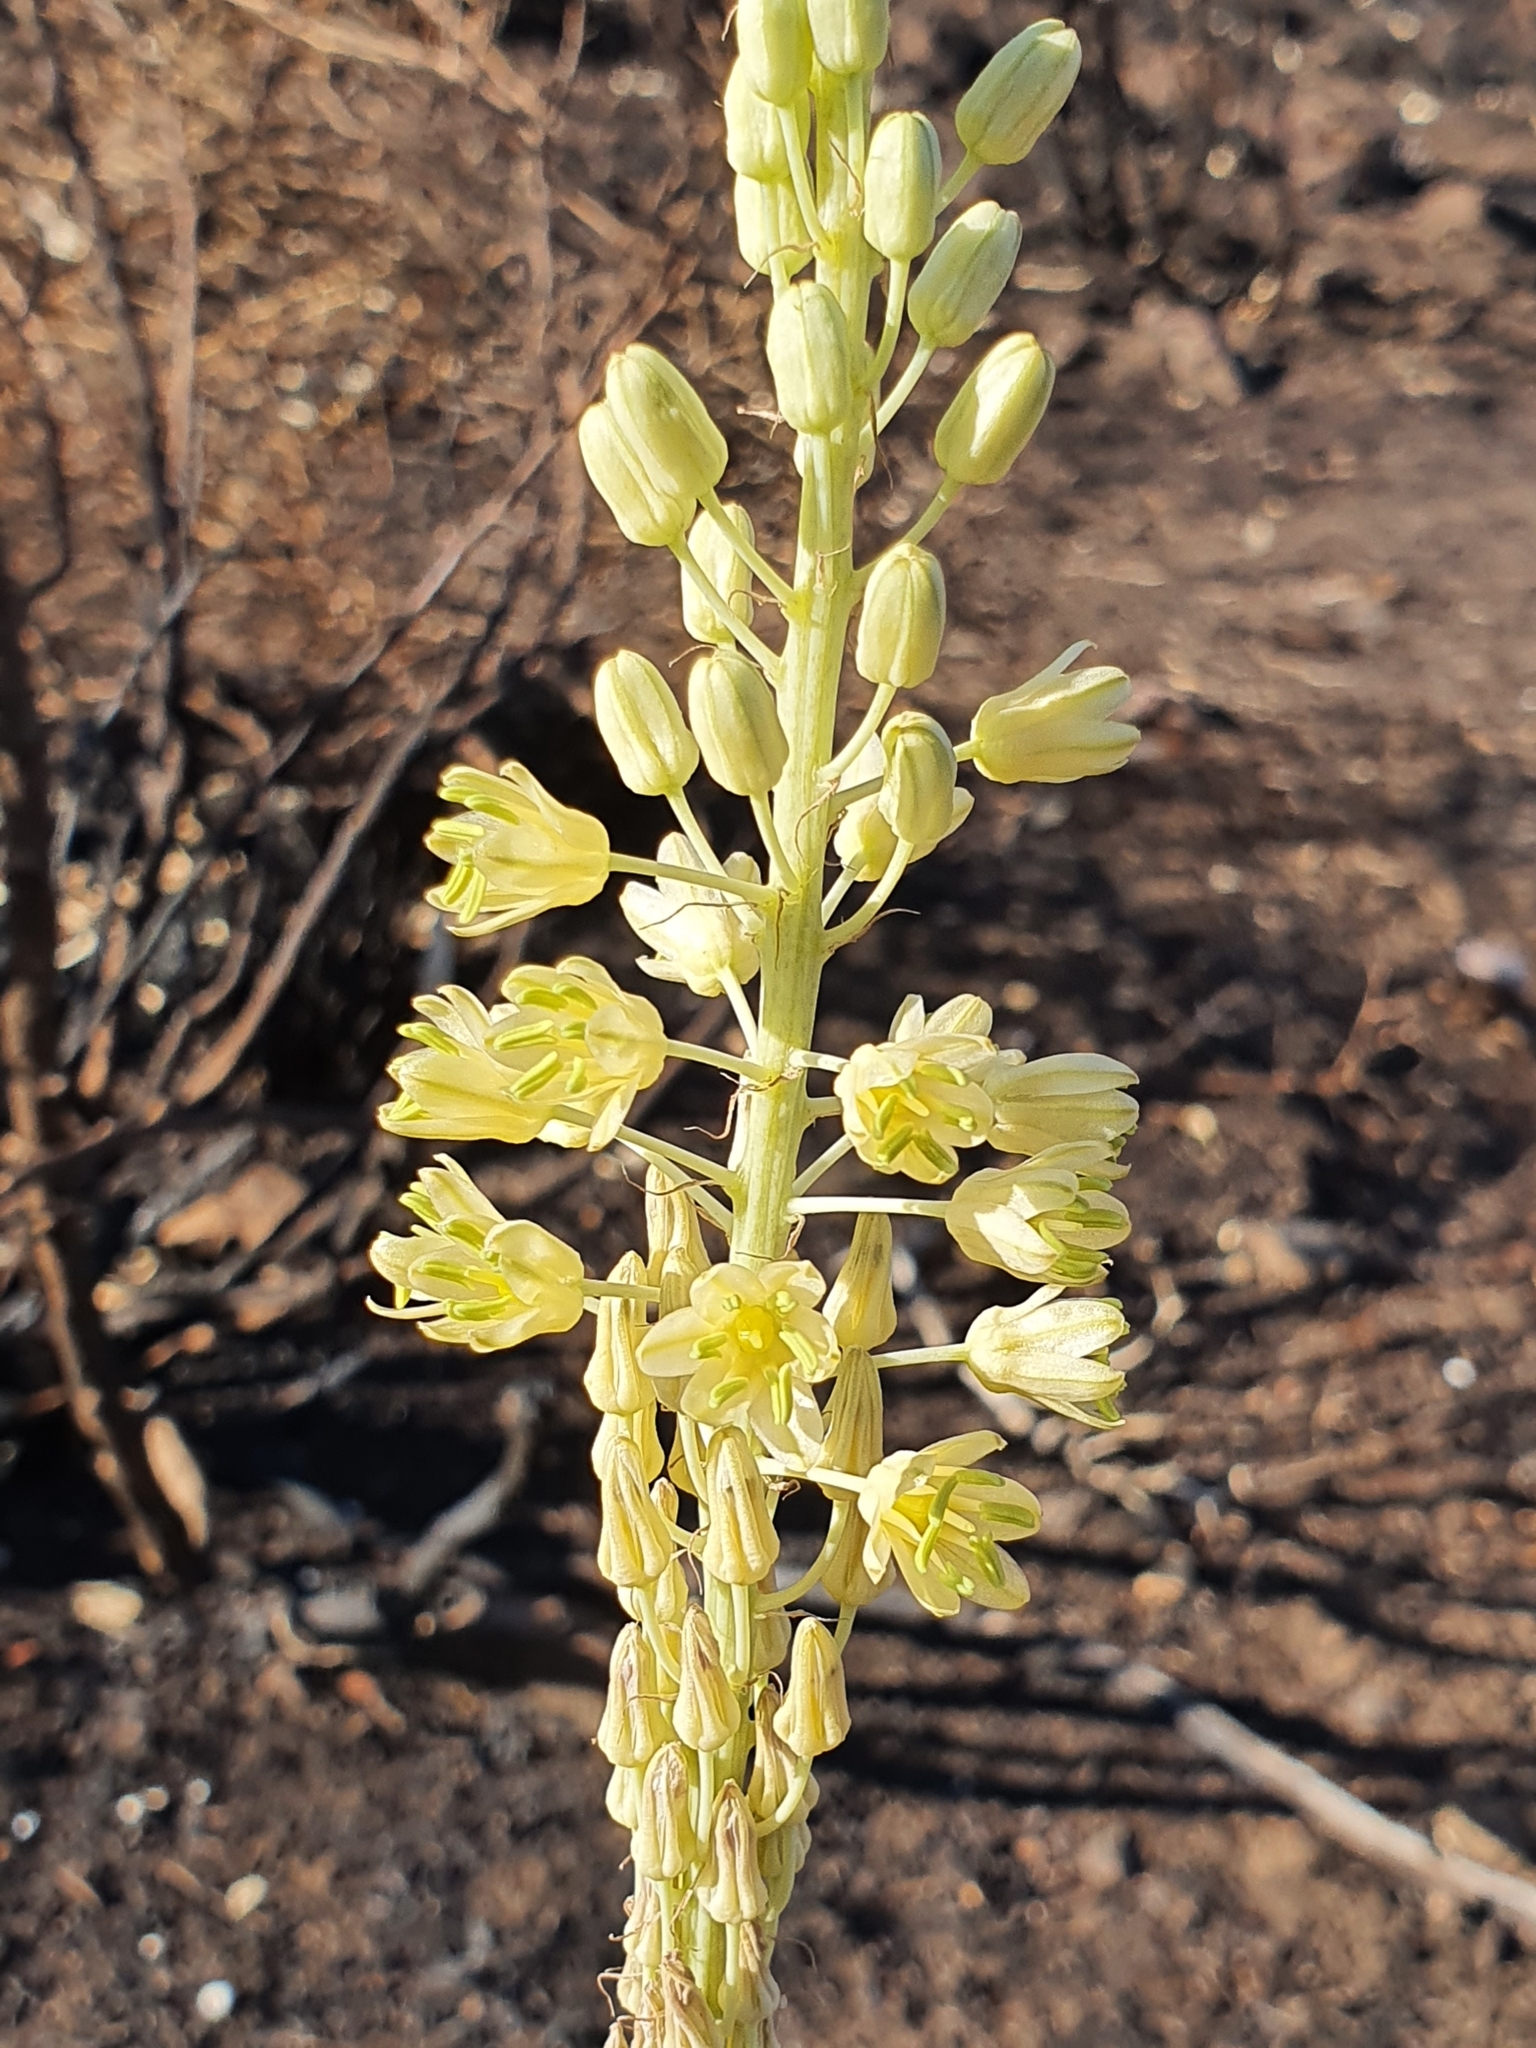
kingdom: Plantae
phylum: Tracheophyta
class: Liliopsida
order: Asparagales
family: Asparagaceae
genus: Drimia
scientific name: Drimia anthericoides
